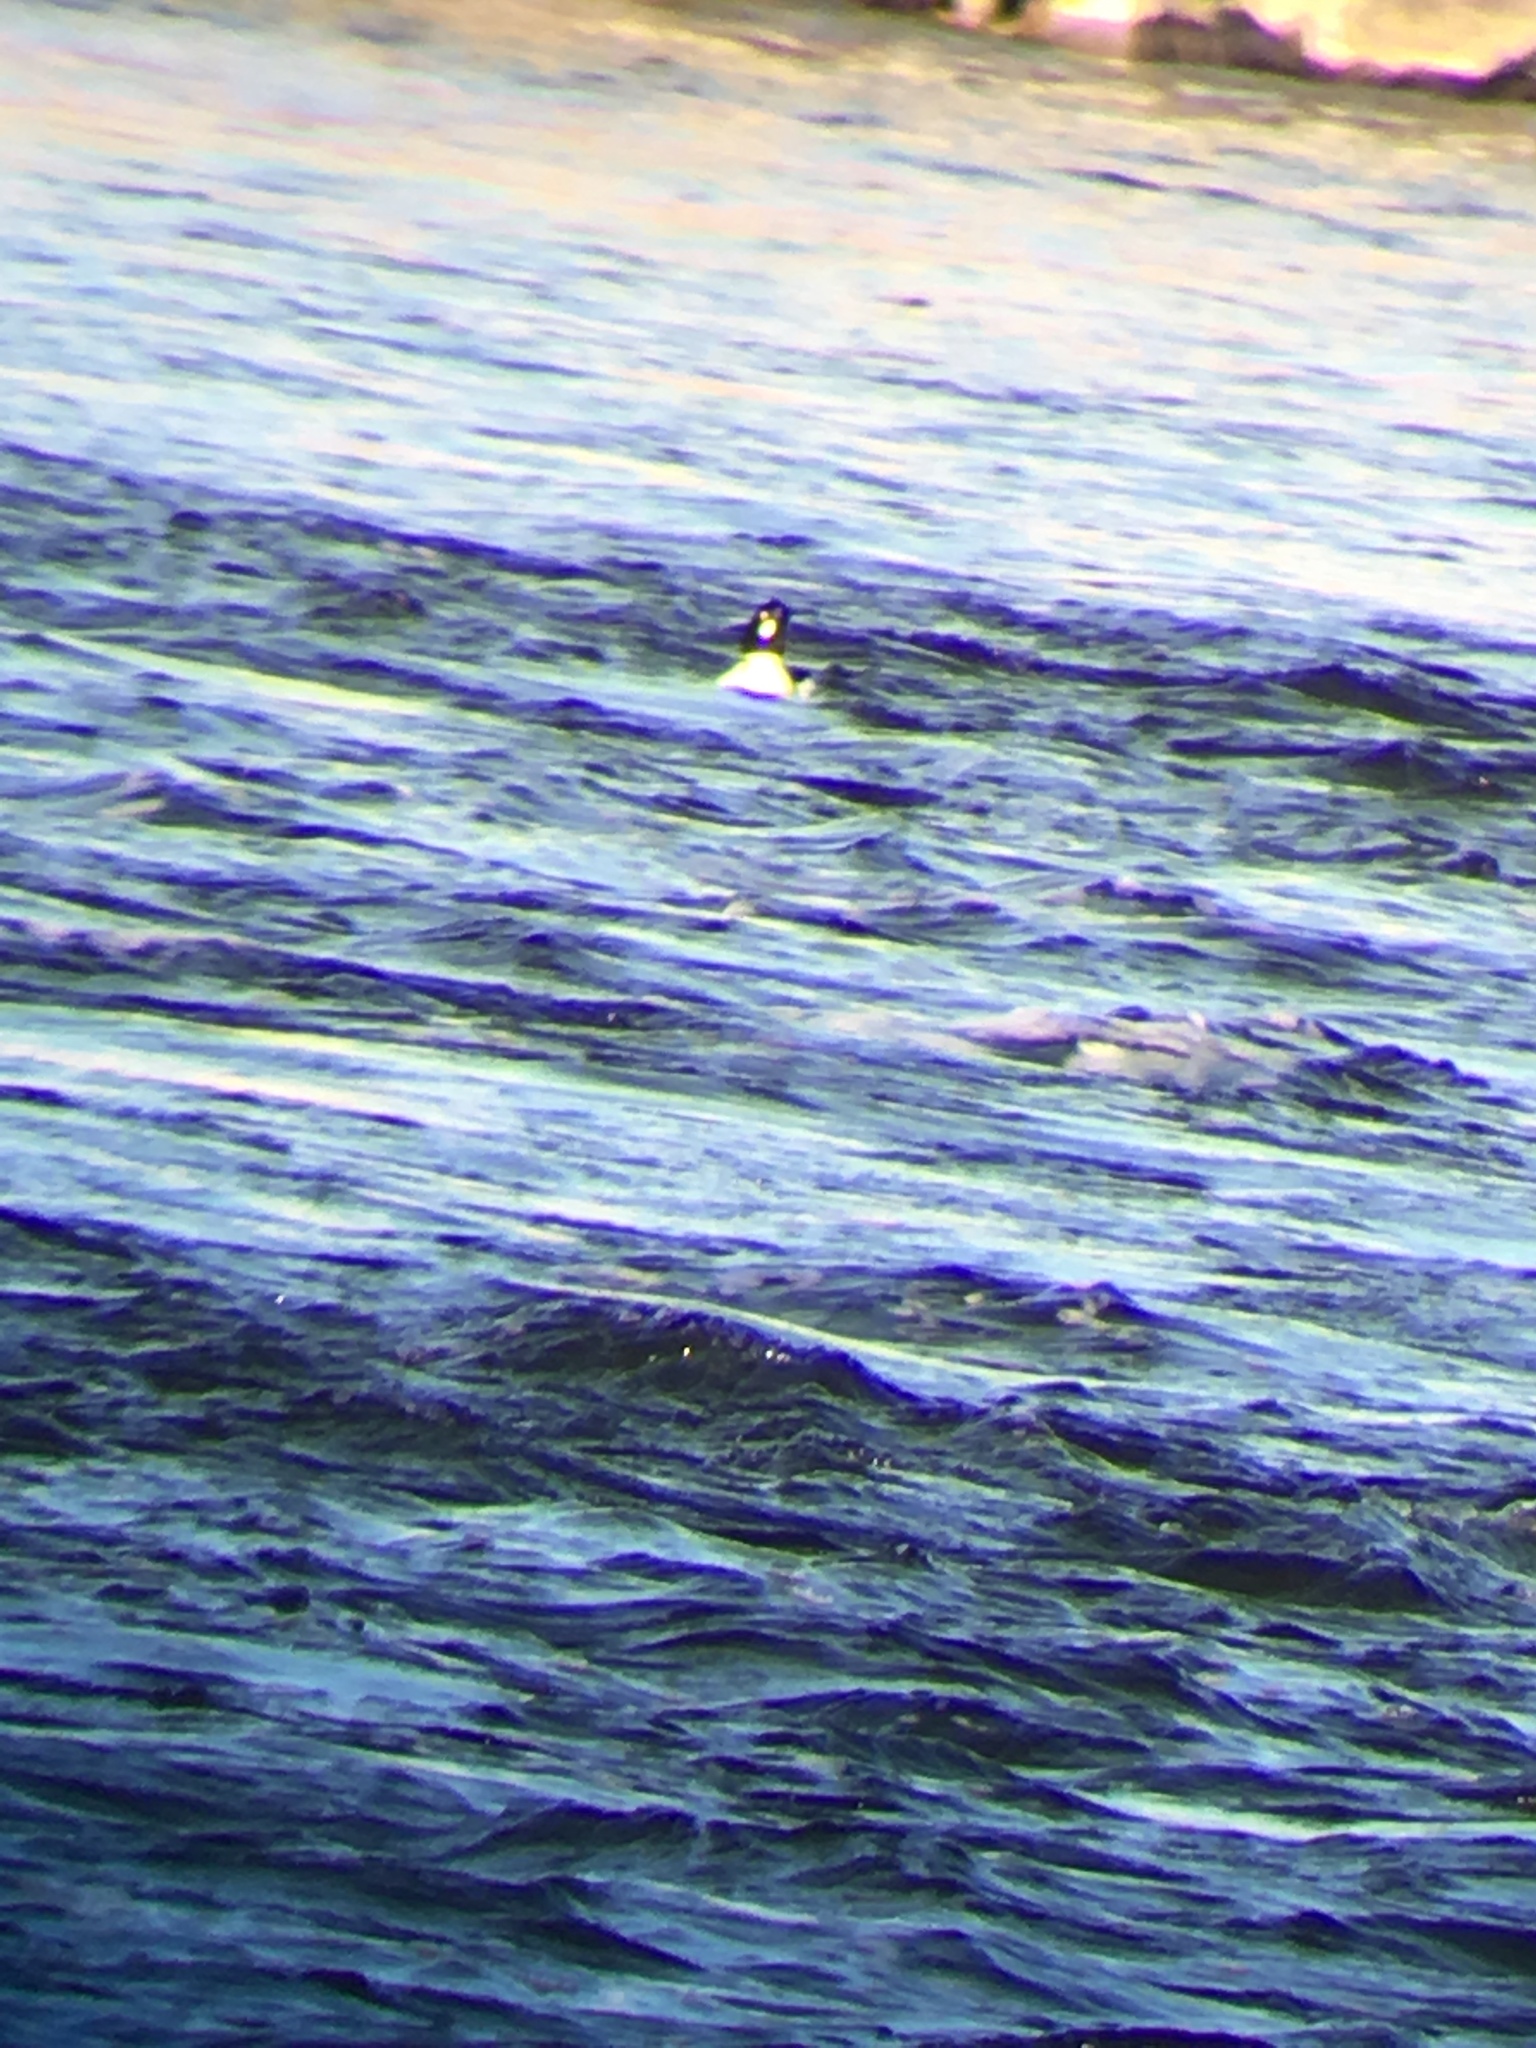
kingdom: Animalia
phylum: Chordata
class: Aves
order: Anseriformes
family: Anatidae
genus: Bucephala
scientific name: Bucephala clangula
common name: Common goldeneye
